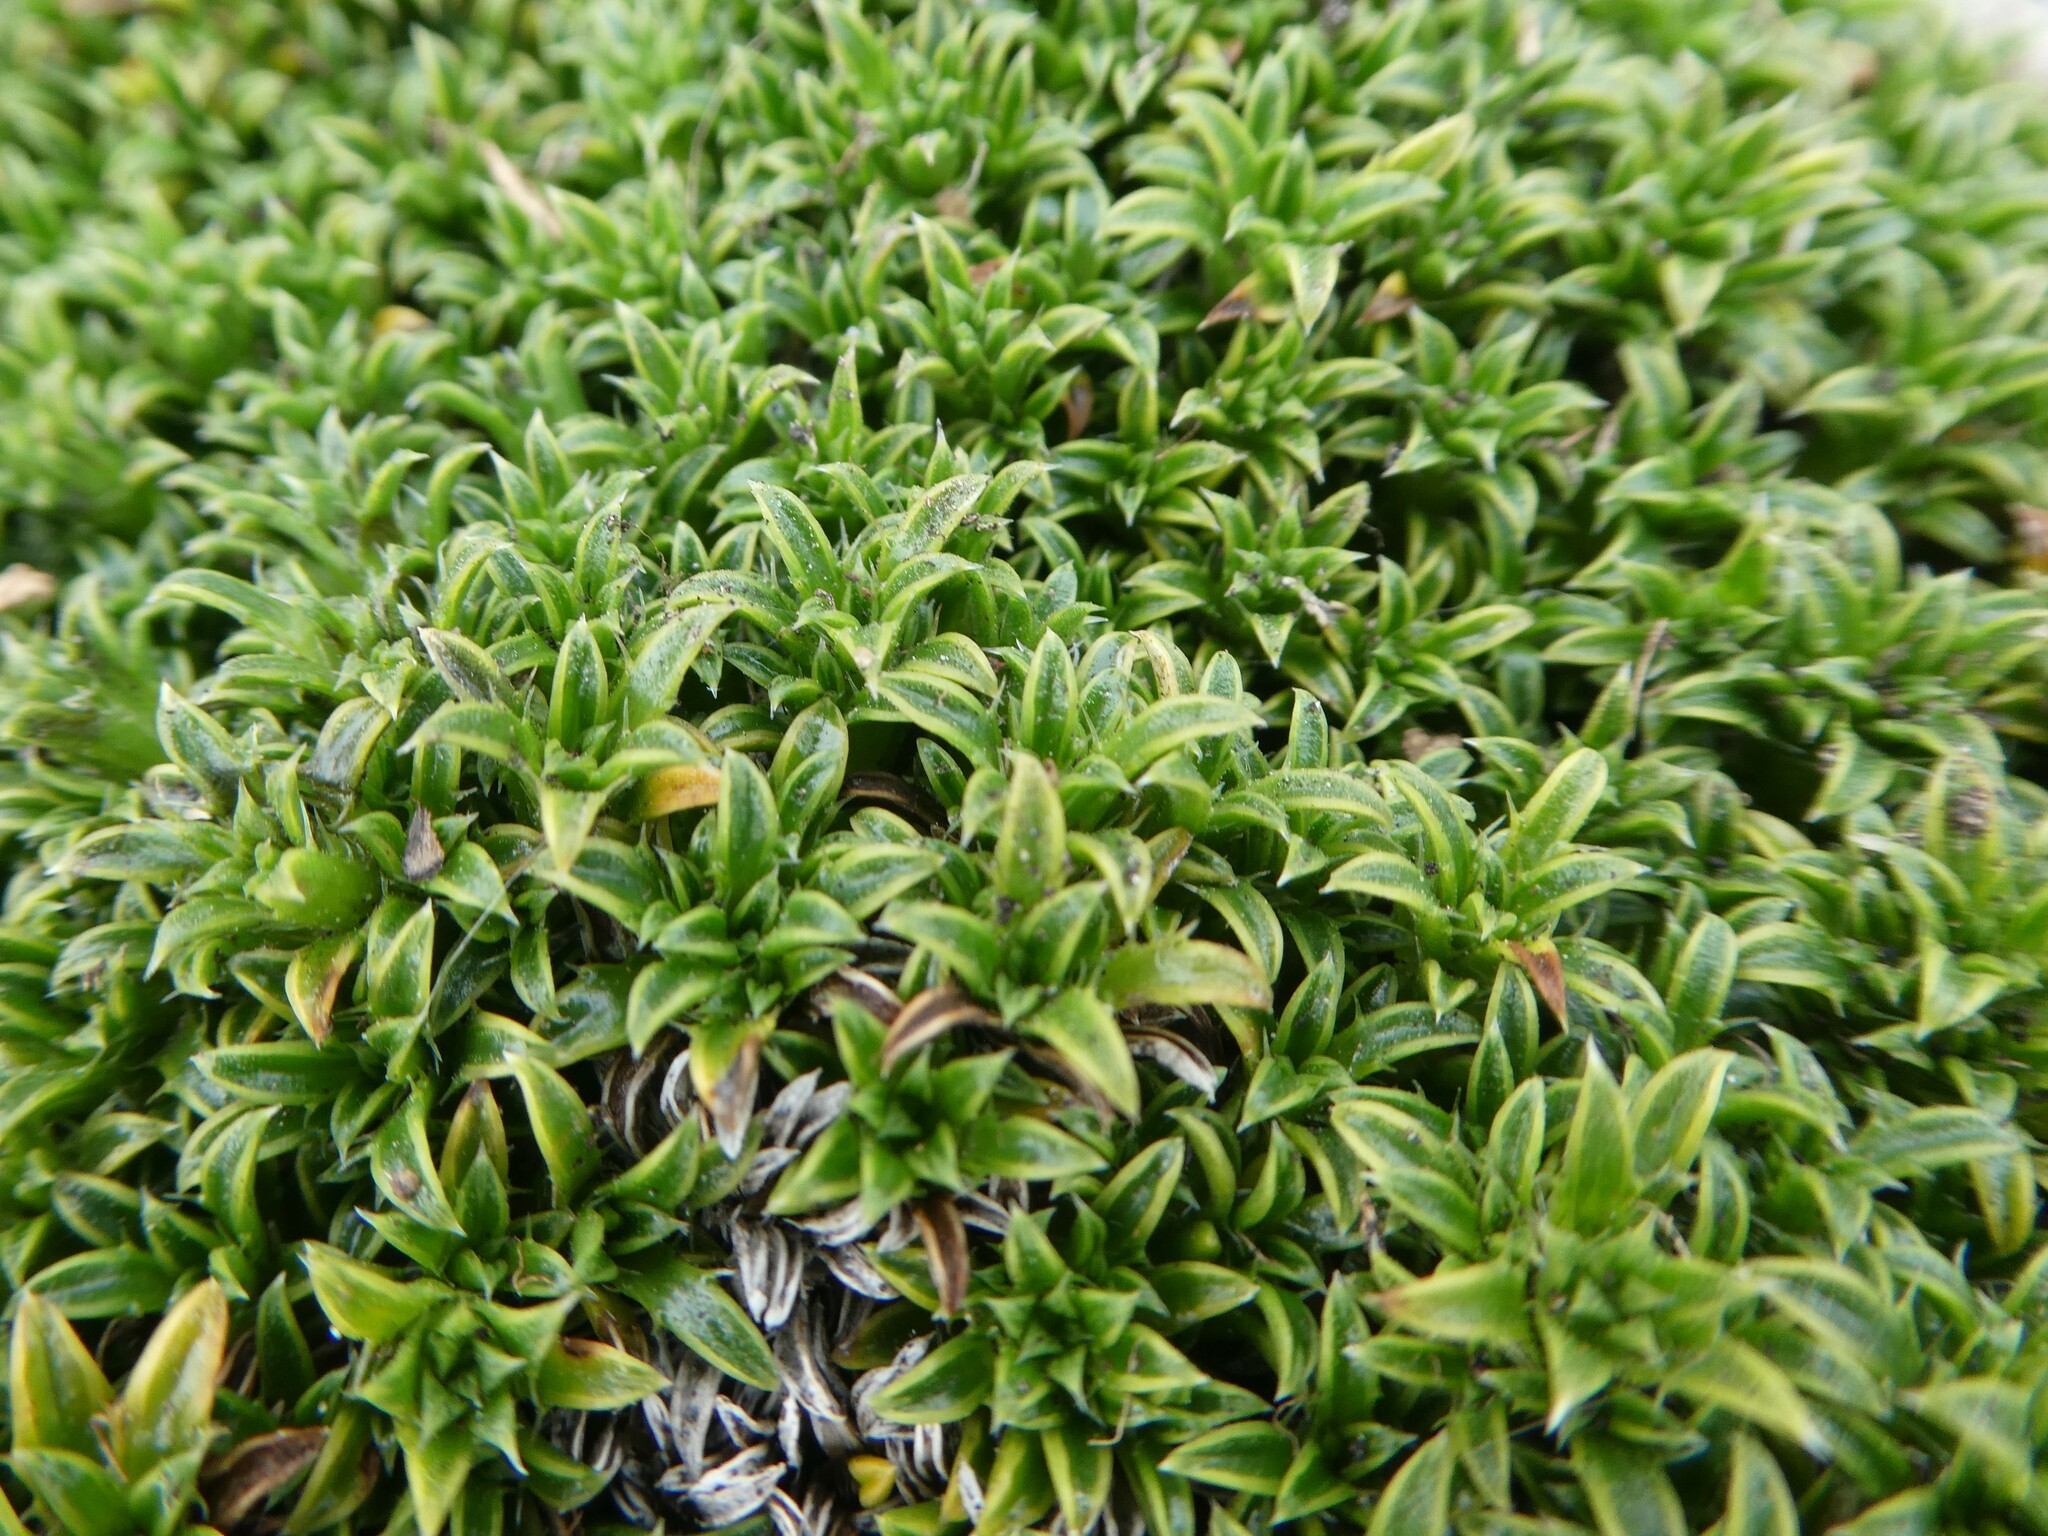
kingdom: Plantae
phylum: Tracheophyta
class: Magnoliopsida
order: Asterales
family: Asteraceae
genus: Nassauvia
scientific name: Nassauvia gaudichaudii
